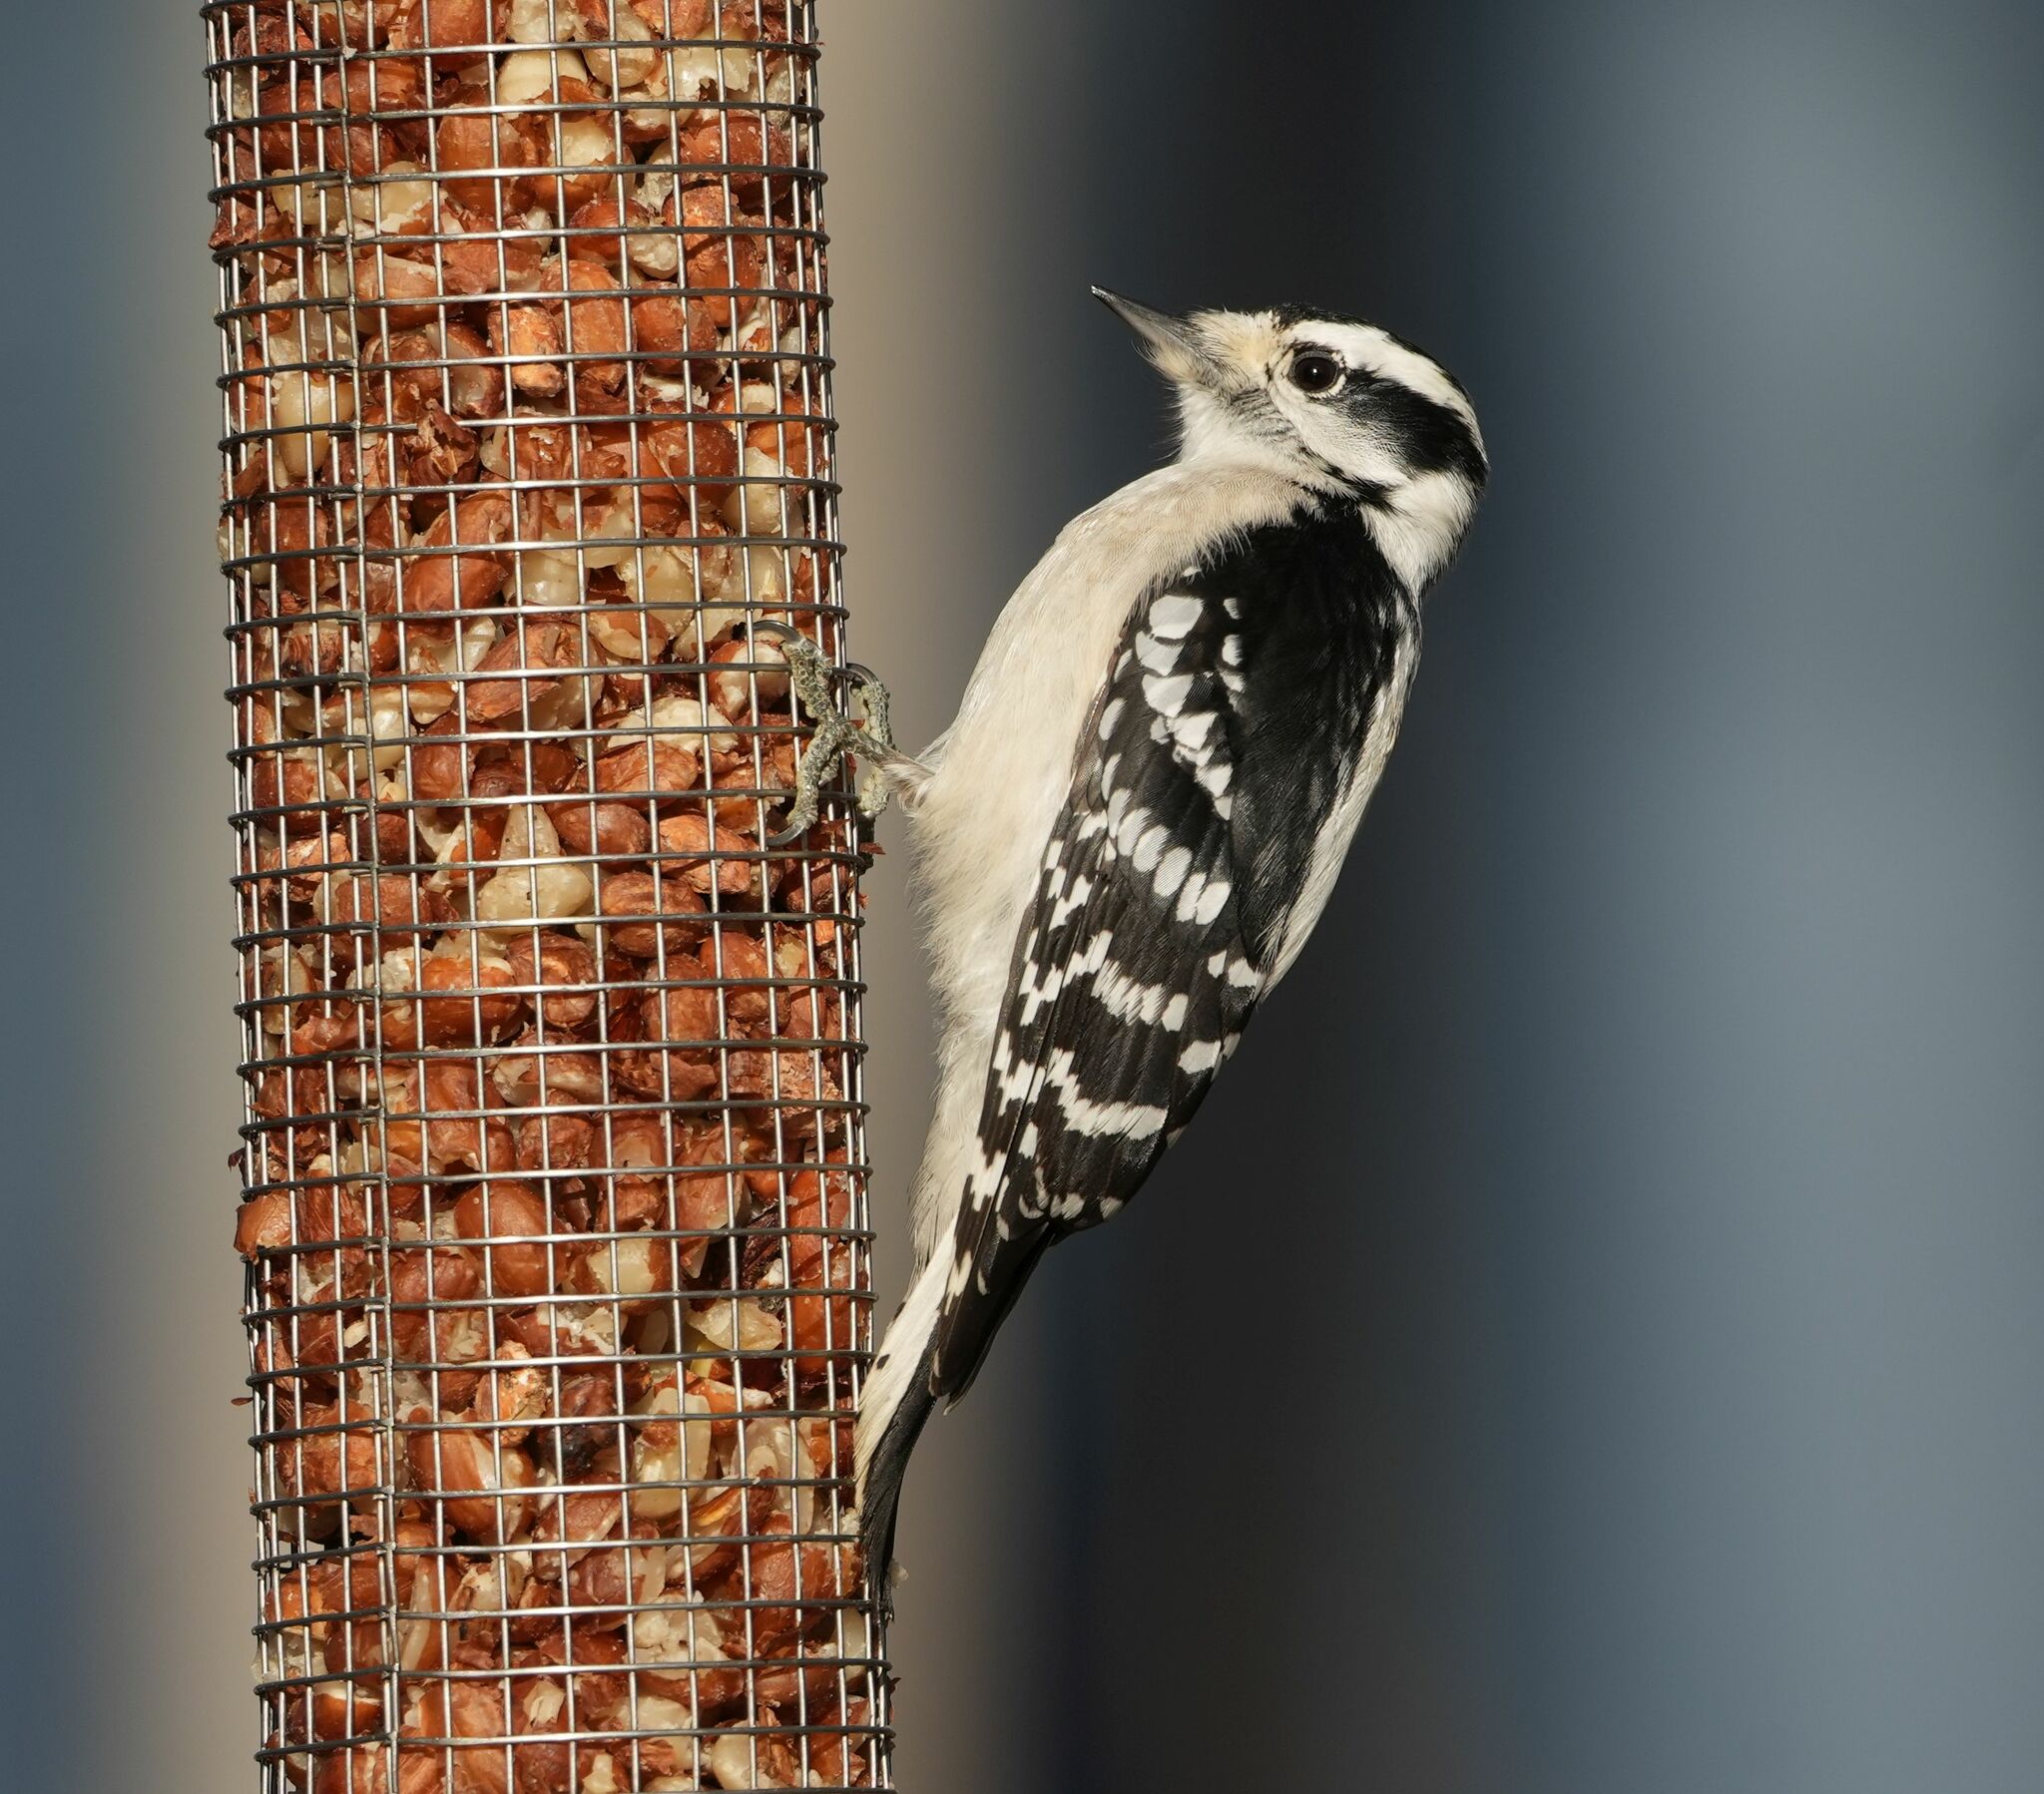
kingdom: Animalia
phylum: Chordata
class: Aves
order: Piciformes
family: Picidae
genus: Dryobates
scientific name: Dryobates pubescens
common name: Downy woodpecker
